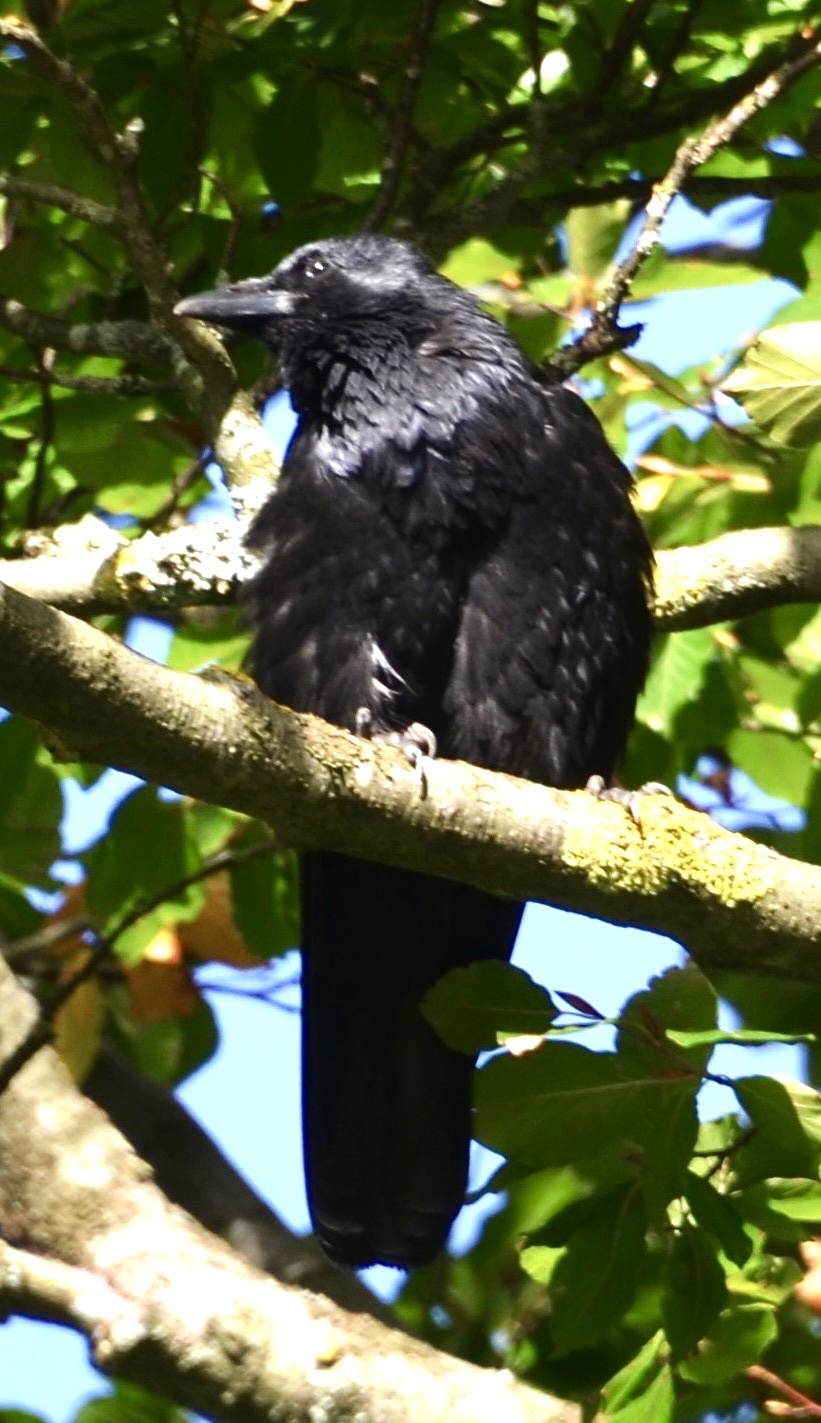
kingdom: Animalia
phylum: Chordata
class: Aves
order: Passeriformes
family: Corvidae
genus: Corvus
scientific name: Corvus corone
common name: Carrion crow
